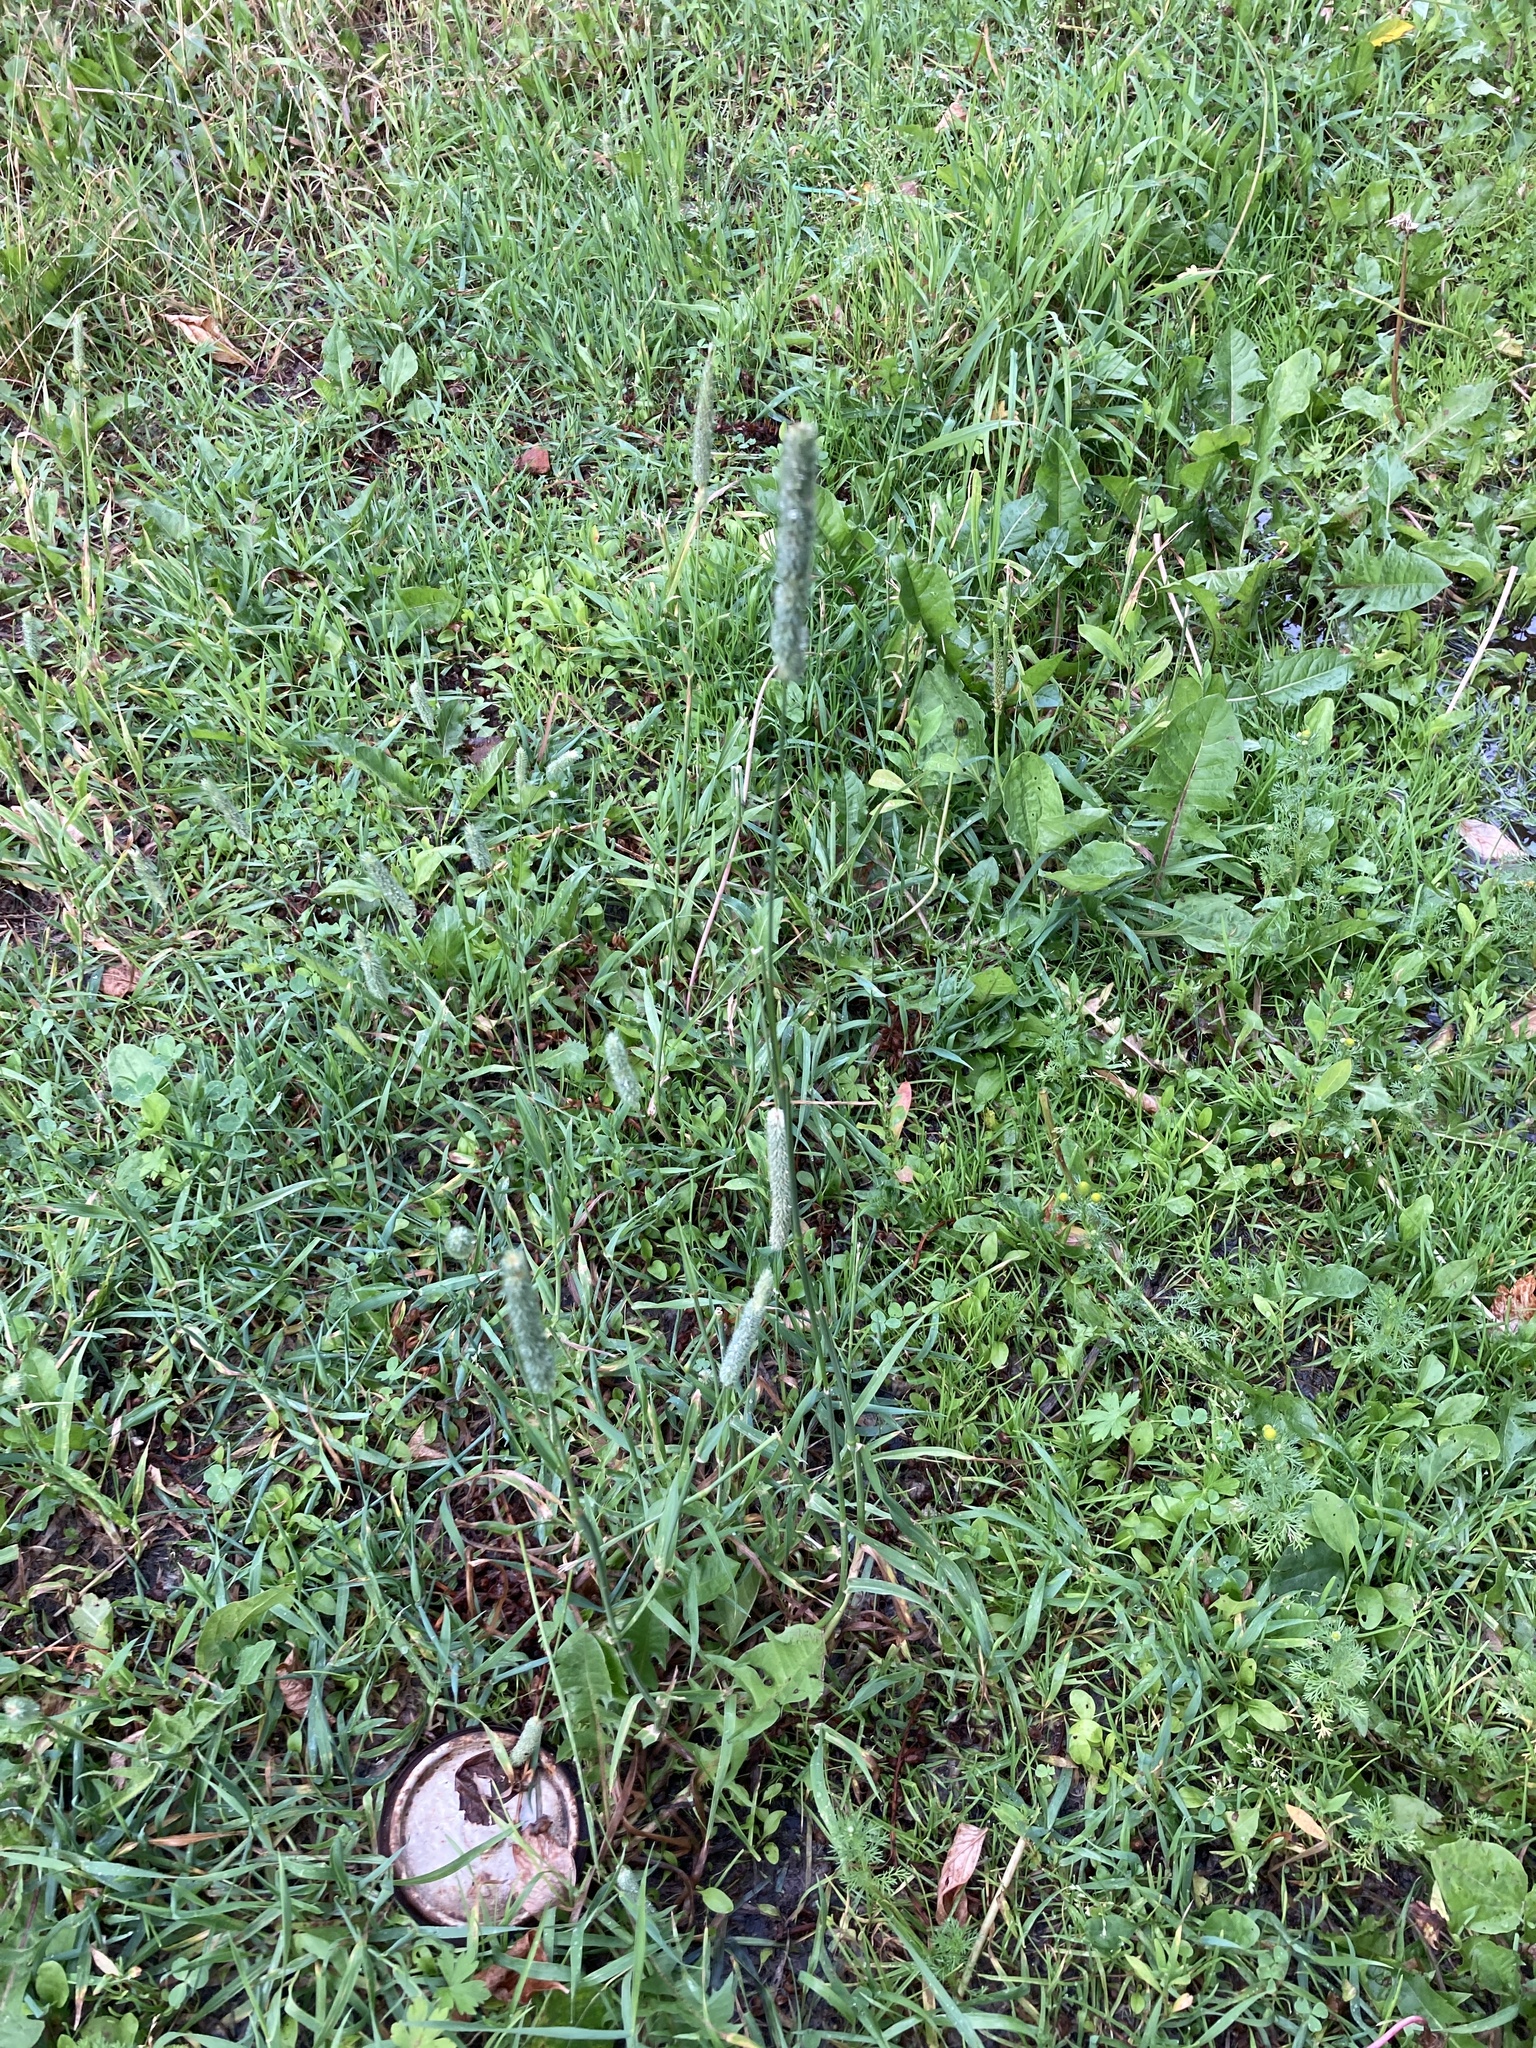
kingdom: Plantae
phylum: Tracheophyta
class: Liliopsida
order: Poales
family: Poaceae
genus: Phleum
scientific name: Phleum pratense
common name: Timothy grass
